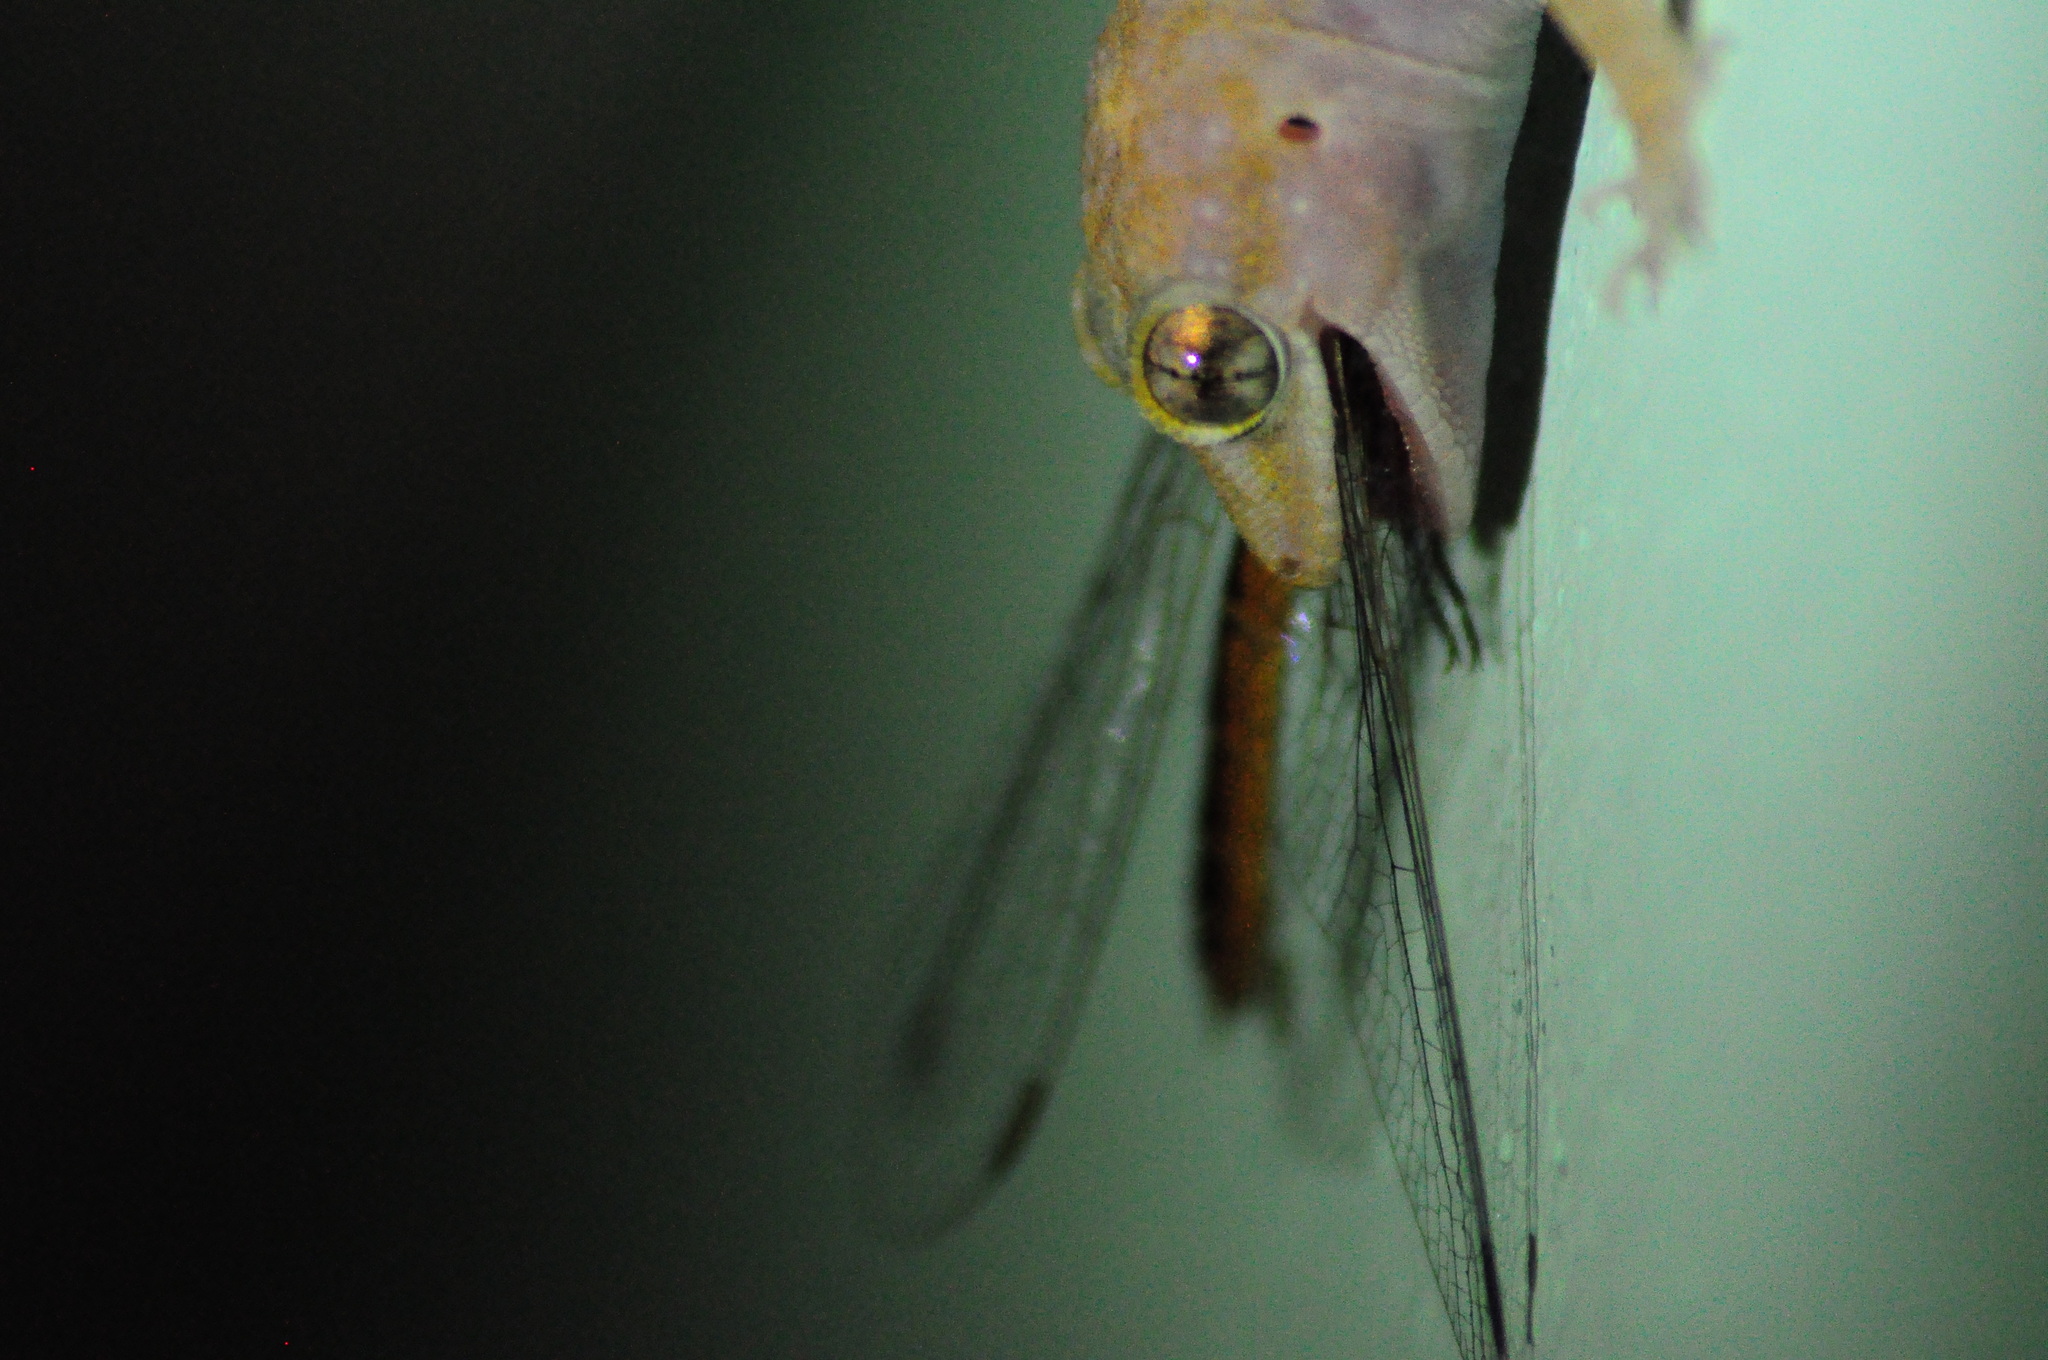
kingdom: Animalia
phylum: Arthropoda
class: Insecta
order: Odonata
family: Libellulidae
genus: Pantala
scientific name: Pantala flavescens
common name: Wandering glider
